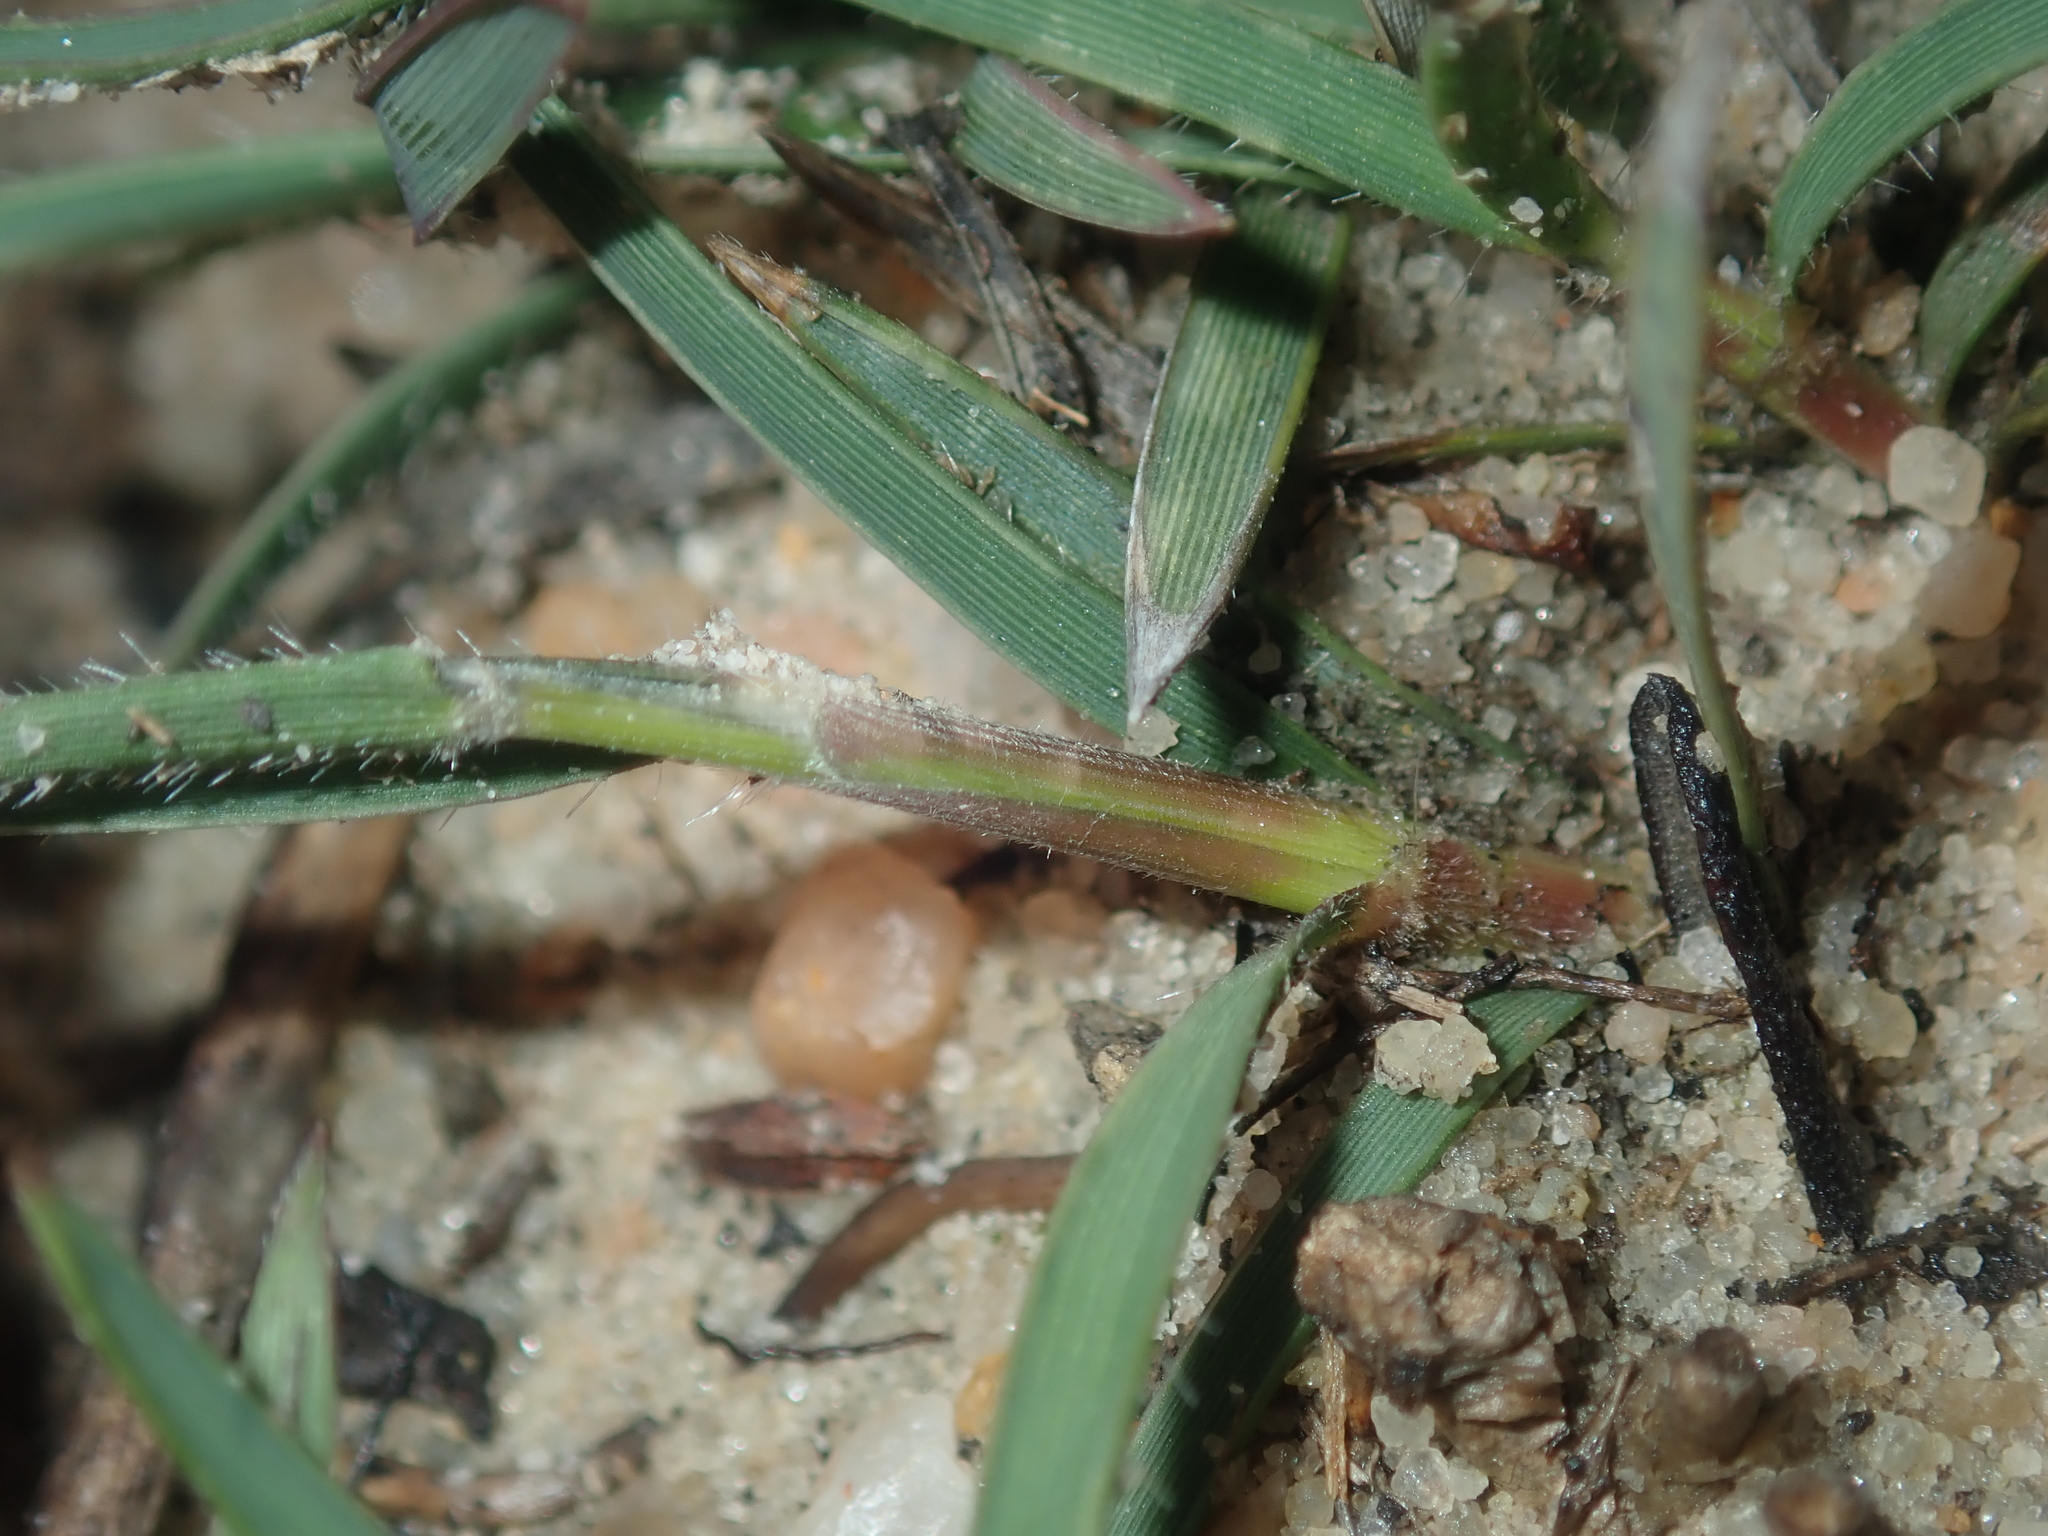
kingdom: Plantae
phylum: Tracheophyta
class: Liliopsida
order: Poales
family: Poaceae
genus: Neurachne
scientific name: Neurachne alopecuroidea
